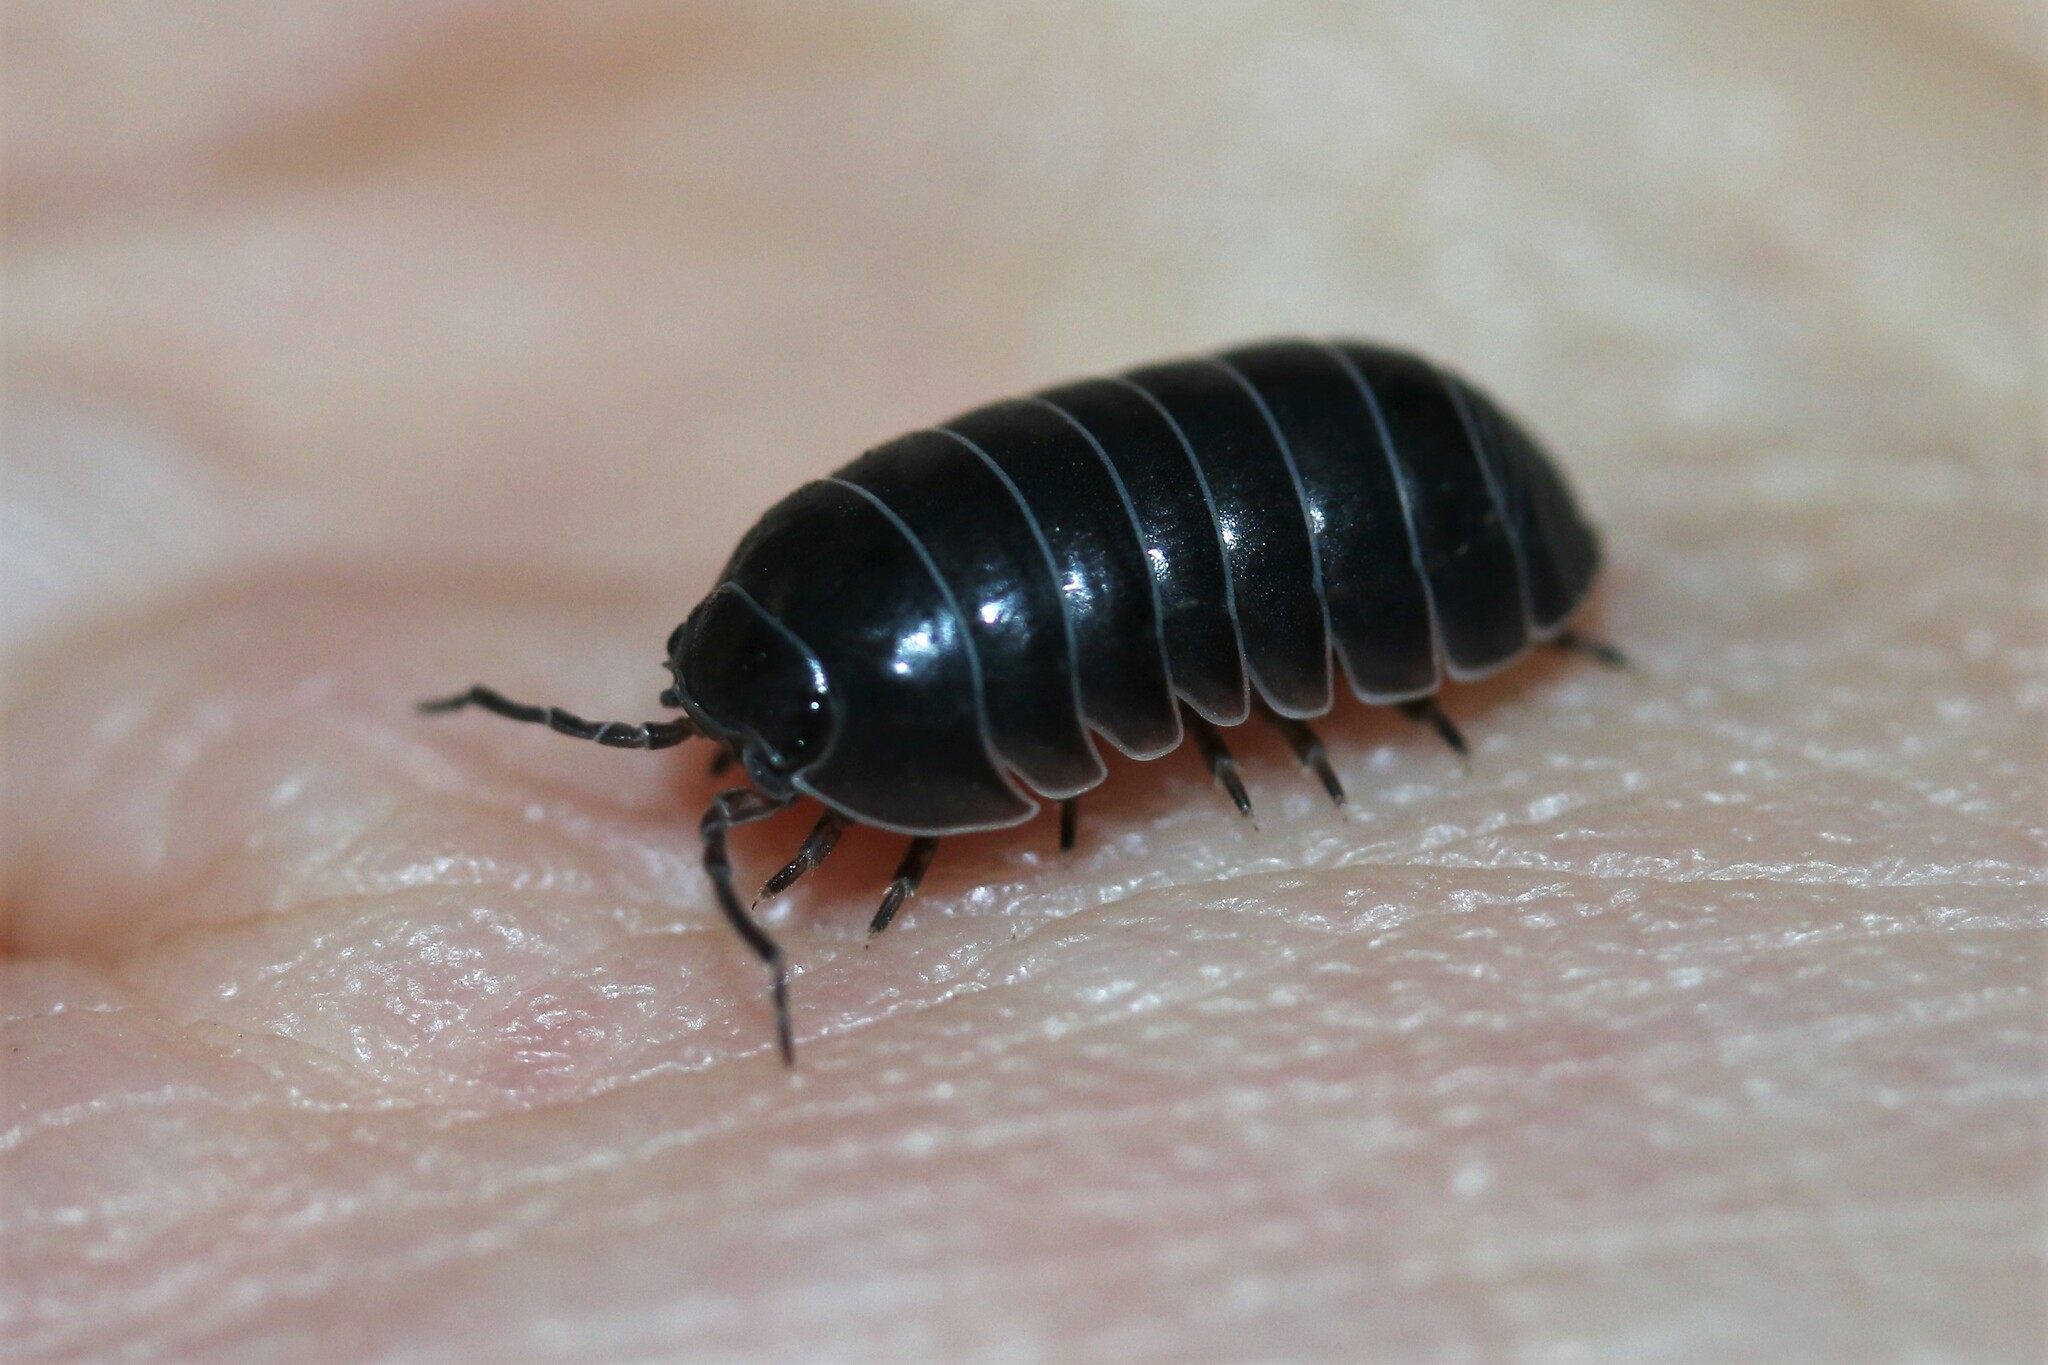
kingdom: Animalia
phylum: Arthropoda
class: Malacostraca
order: Isopoda
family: Armadillidiidae
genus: Armadillidium
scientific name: Armadillidium vulgare
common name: Common pill woodlouse
